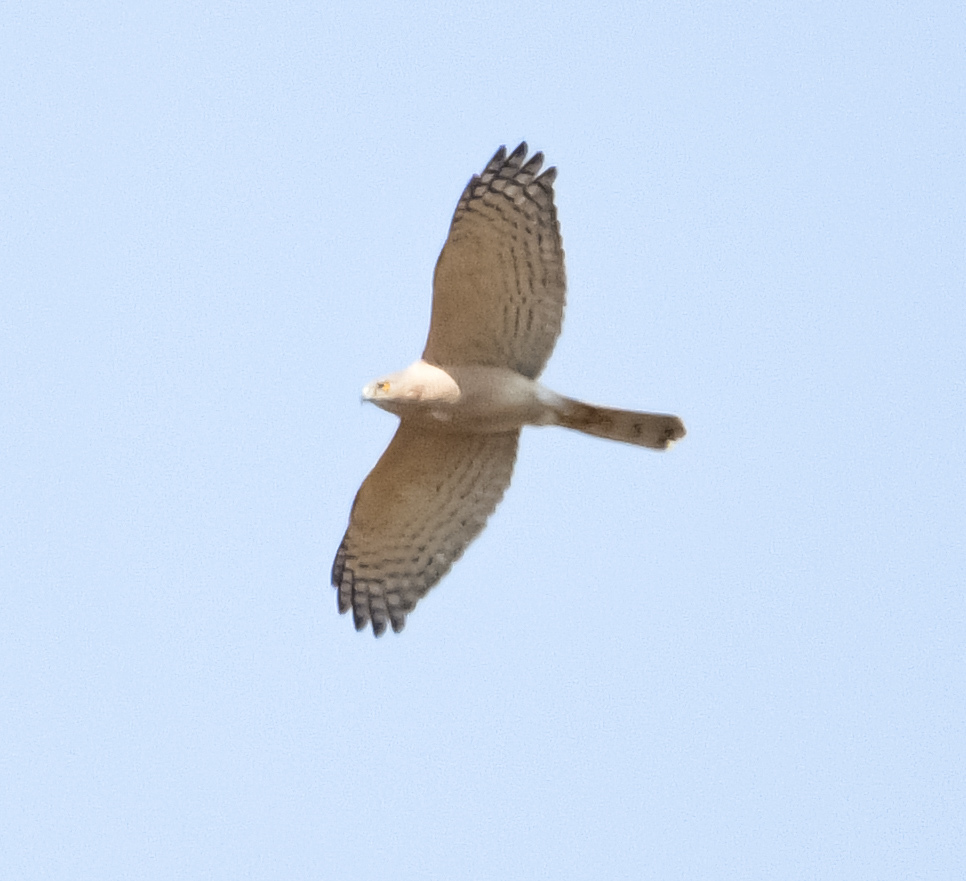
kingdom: Animalia
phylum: Chordata
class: Aves
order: Accipitriformes
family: Accipitridae
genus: Accipiter
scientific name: Accipiter badius
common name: Shikra
